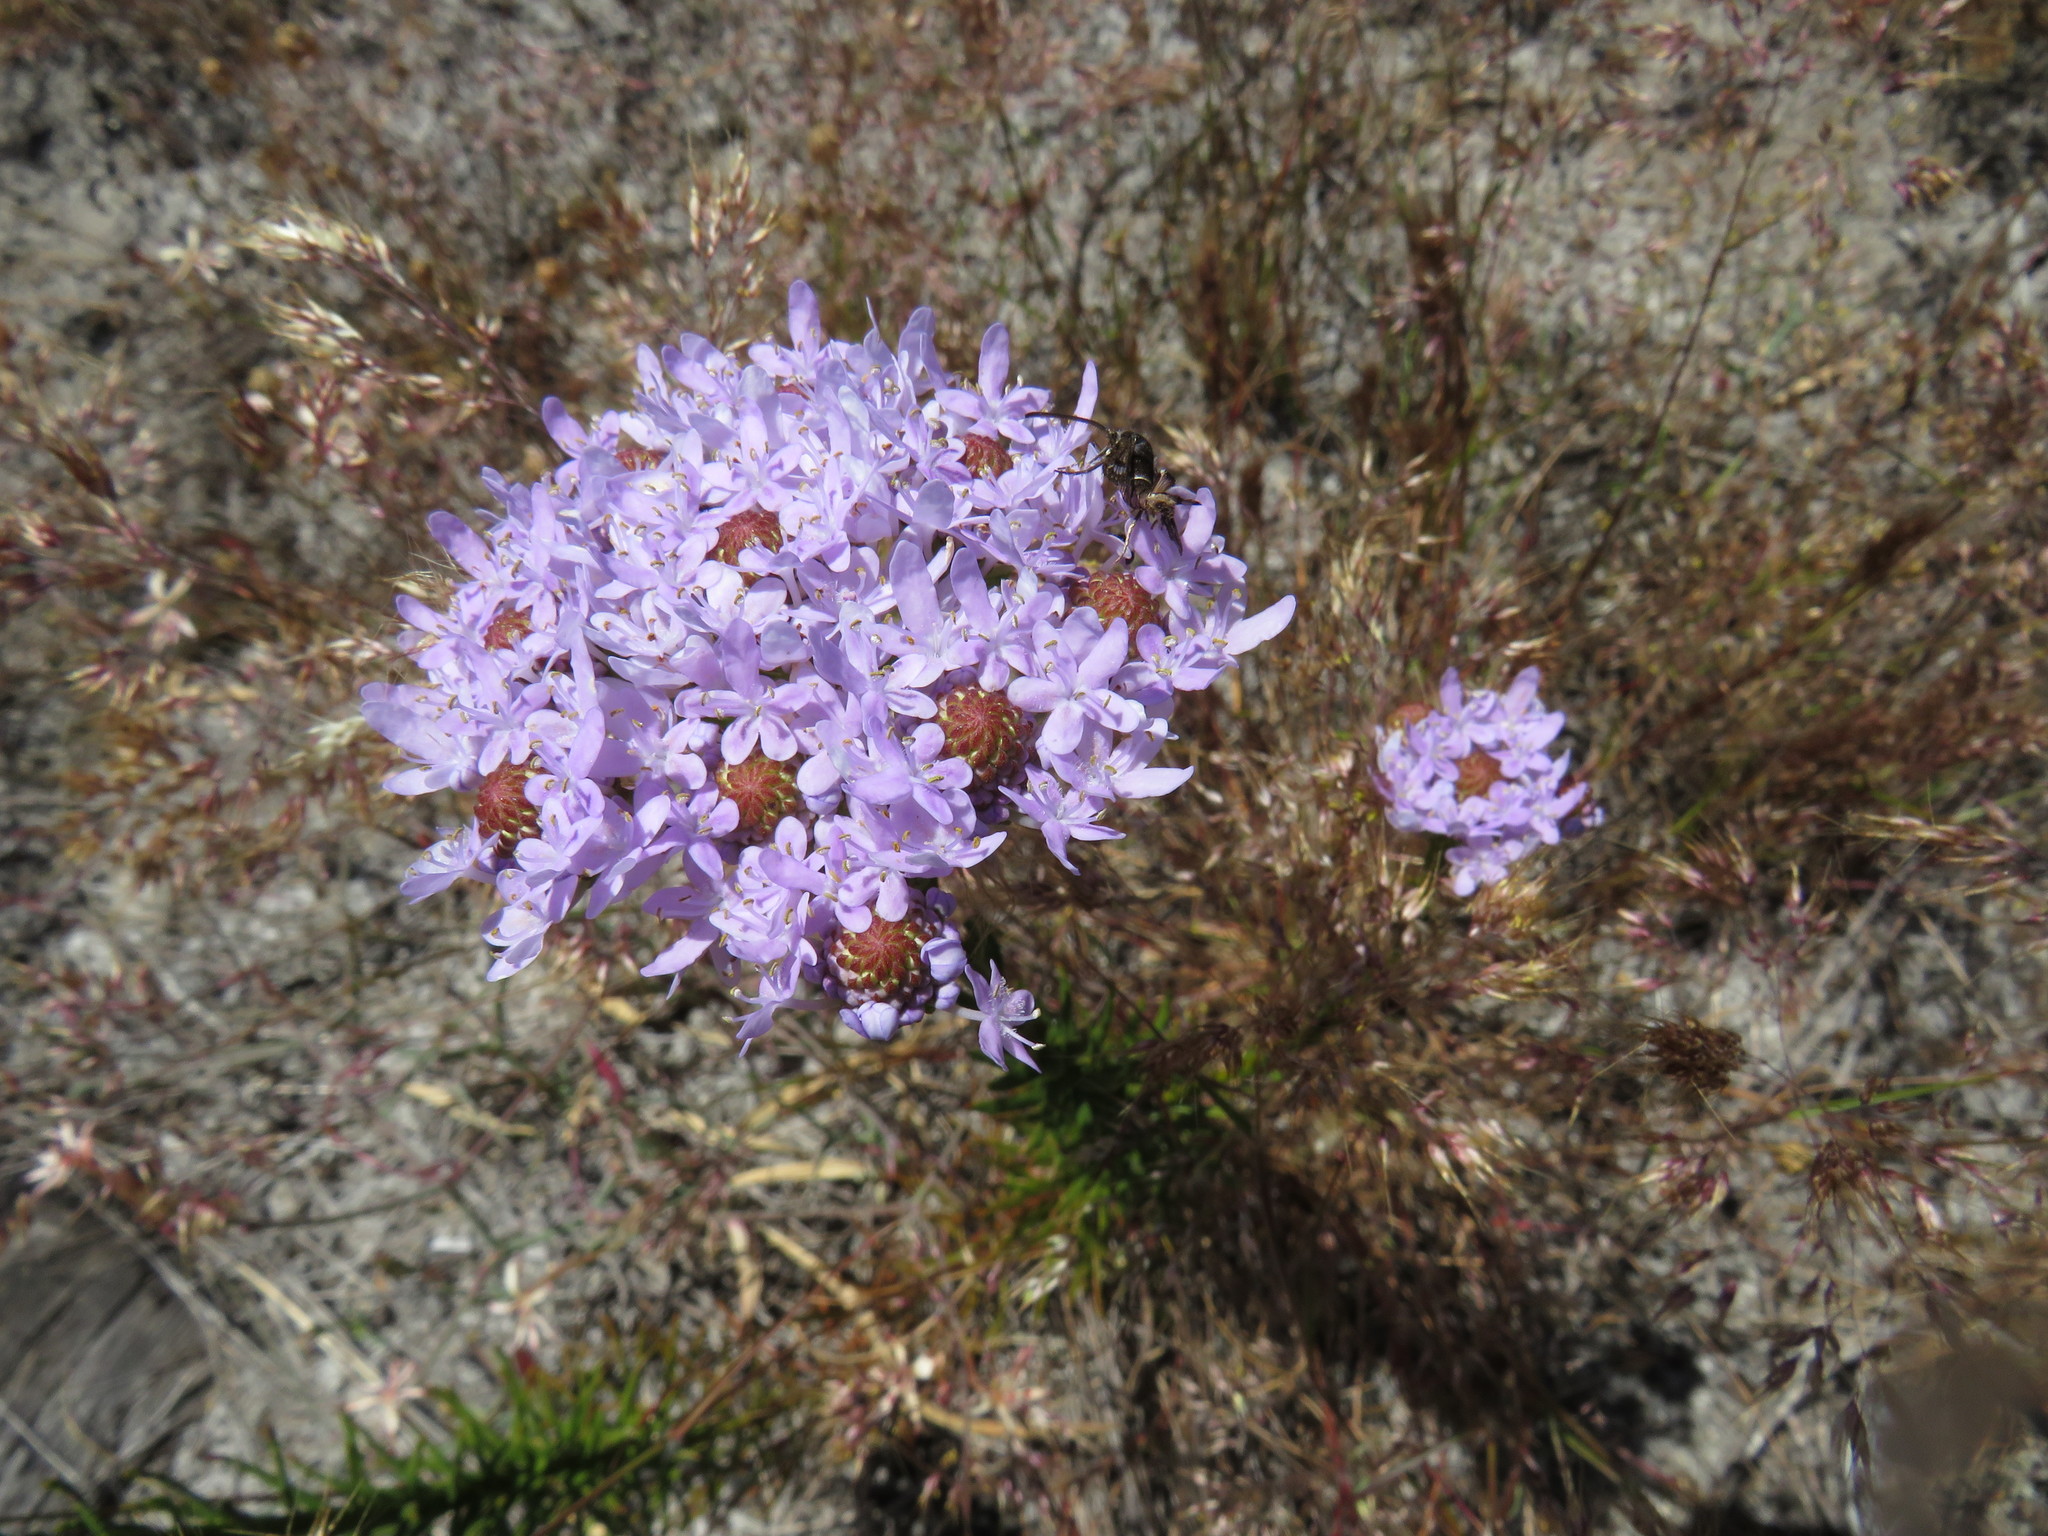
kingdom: Plantae
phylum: Tracheophyta
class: Magnoliopsida
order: Lamiales
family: Scrophulariaceae
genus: Pseudoselago
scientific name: Pseudoselago spuria
